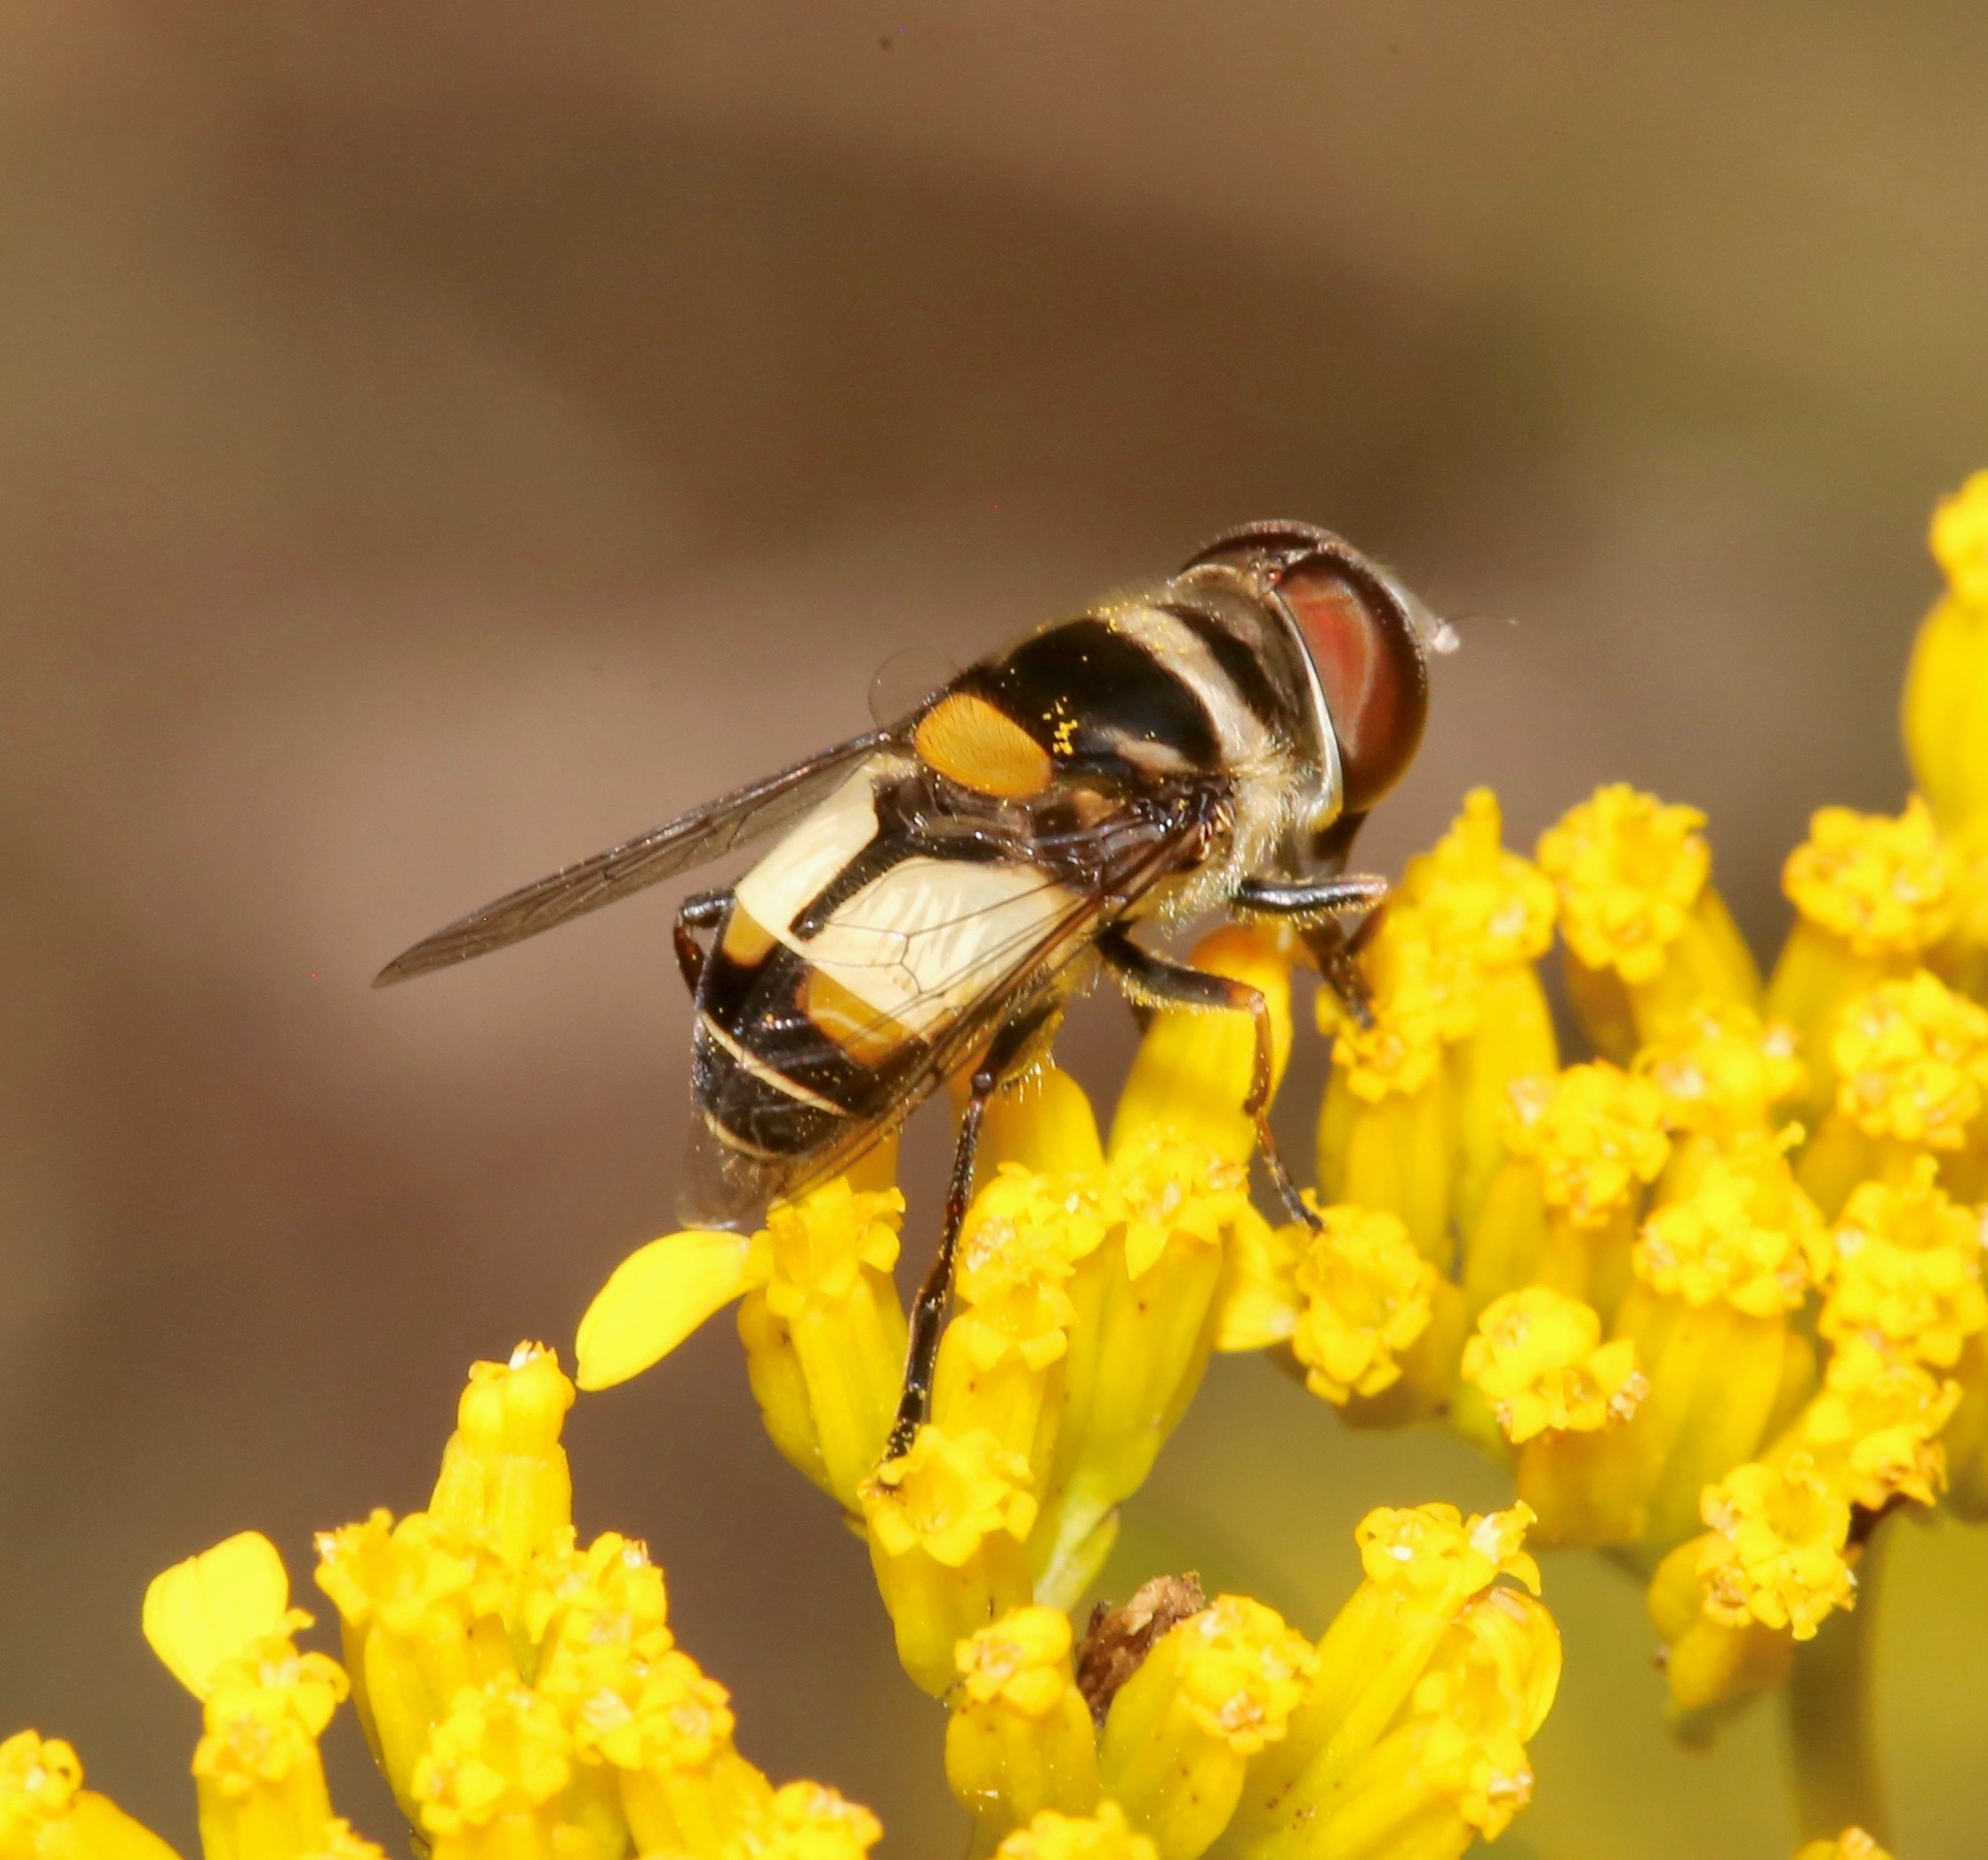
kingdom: Animalia
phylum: Arthropoda
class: Insecta
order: Diptera
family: Syrphidae
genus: Palpada
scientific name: Palpada albifrons
